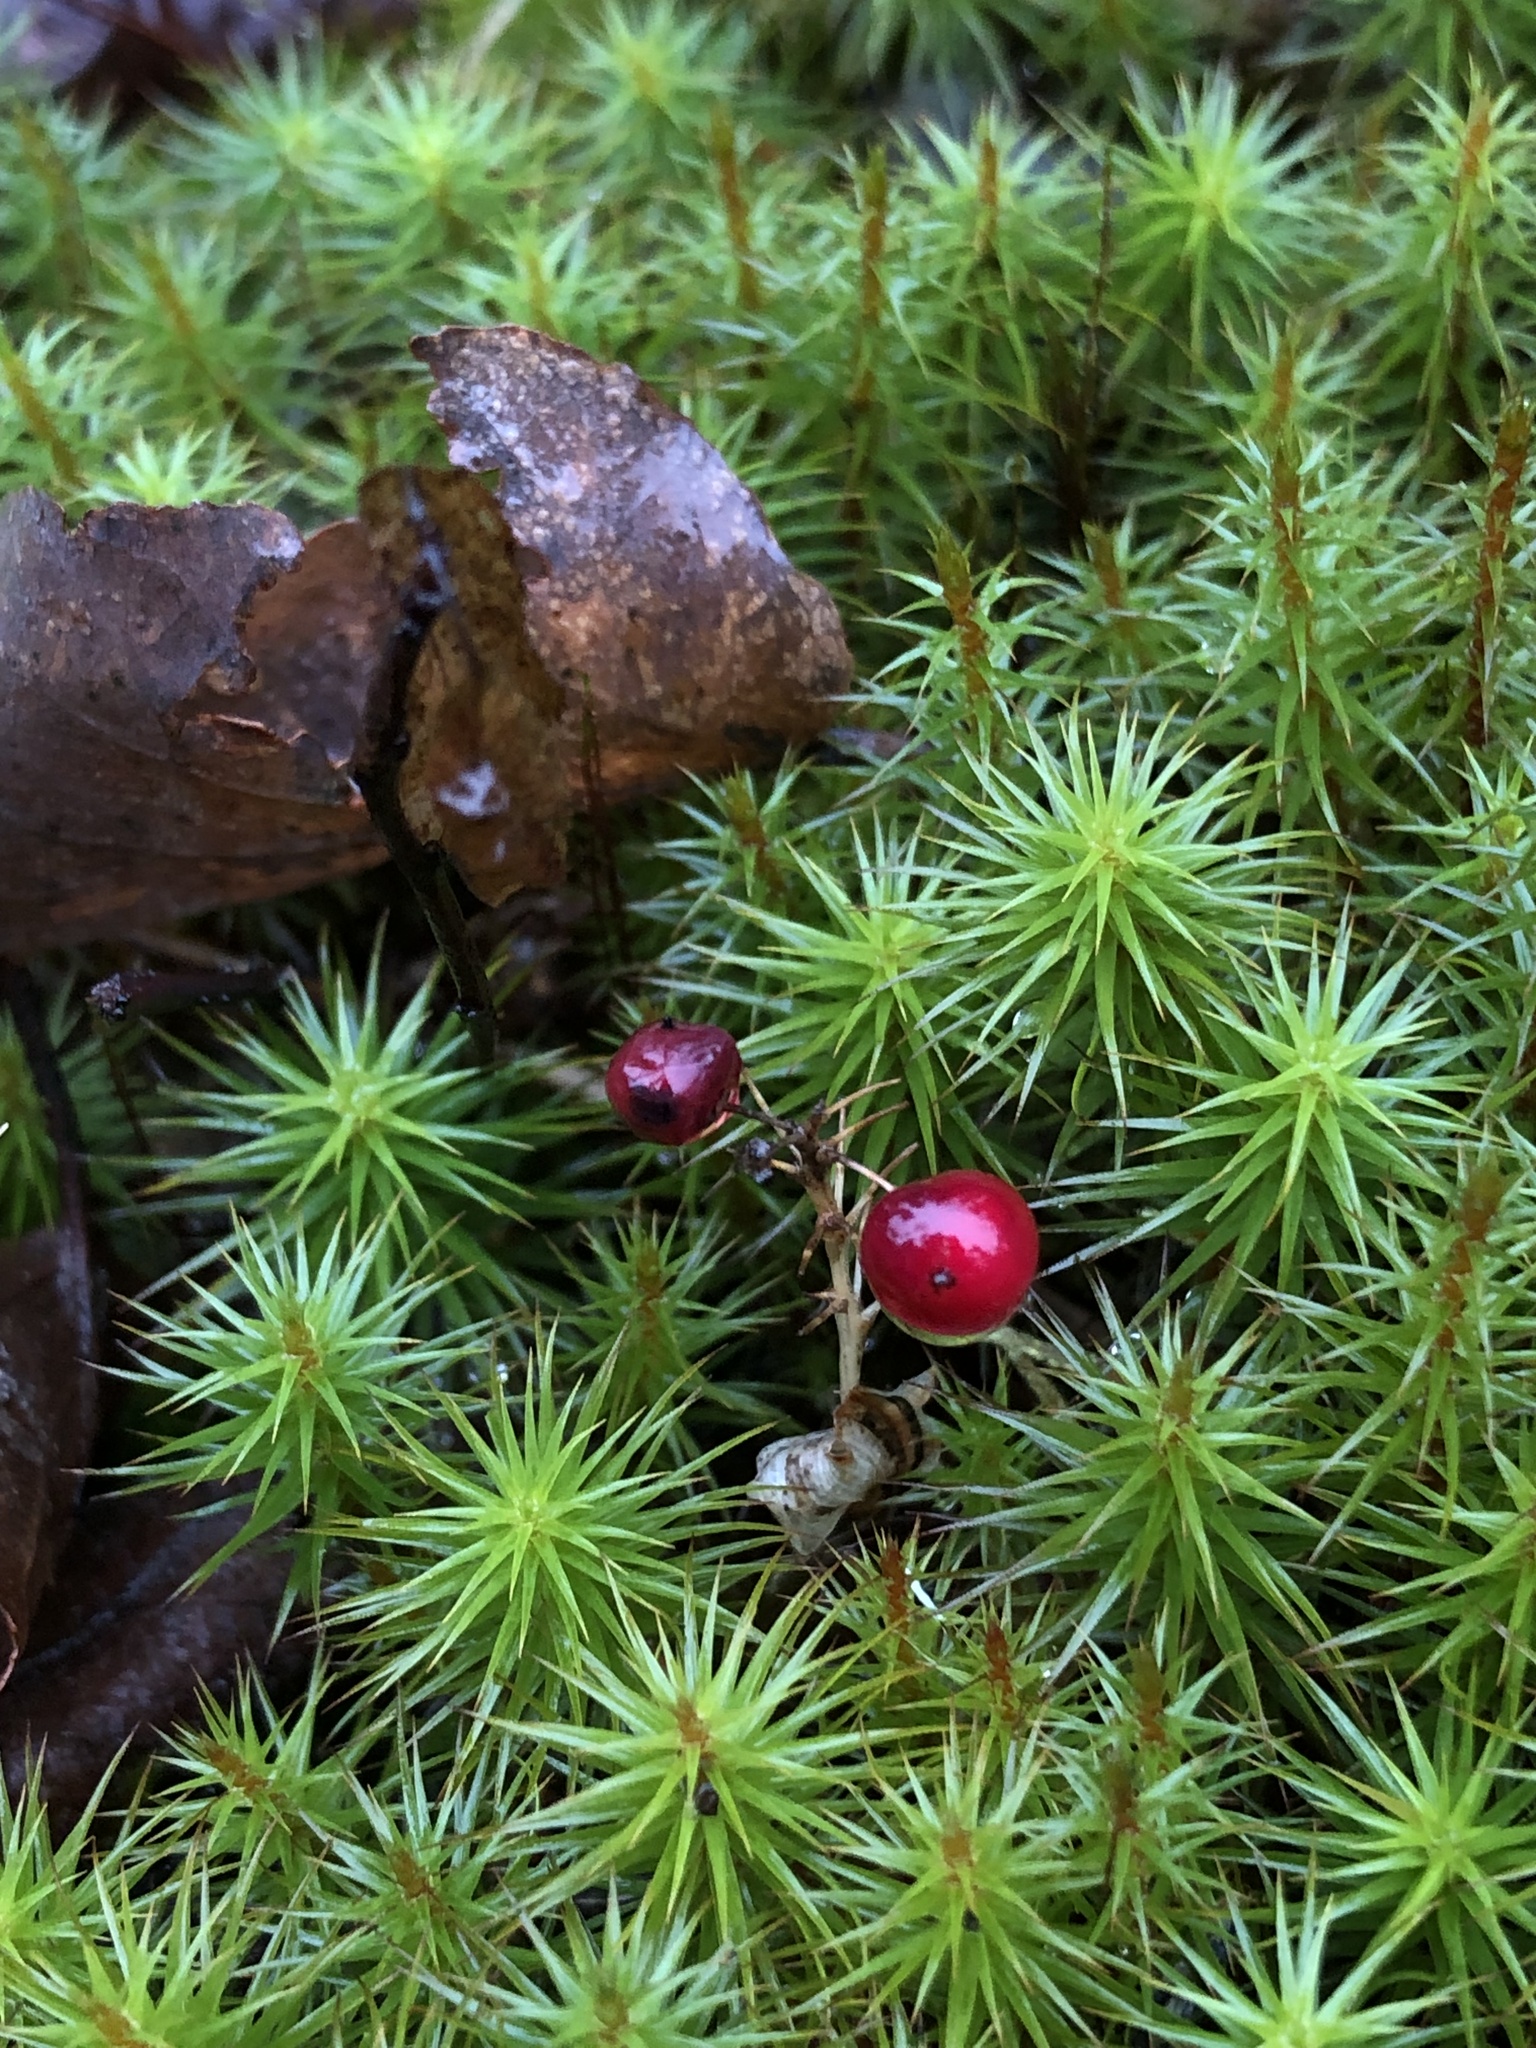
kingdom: Plantae
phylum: Tracheophyta
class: Liliopsida
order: Asparagales
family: Asparagaceae
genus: Maianthemum
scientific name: Maianthemum canadense
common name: False lily-of-the-valley
